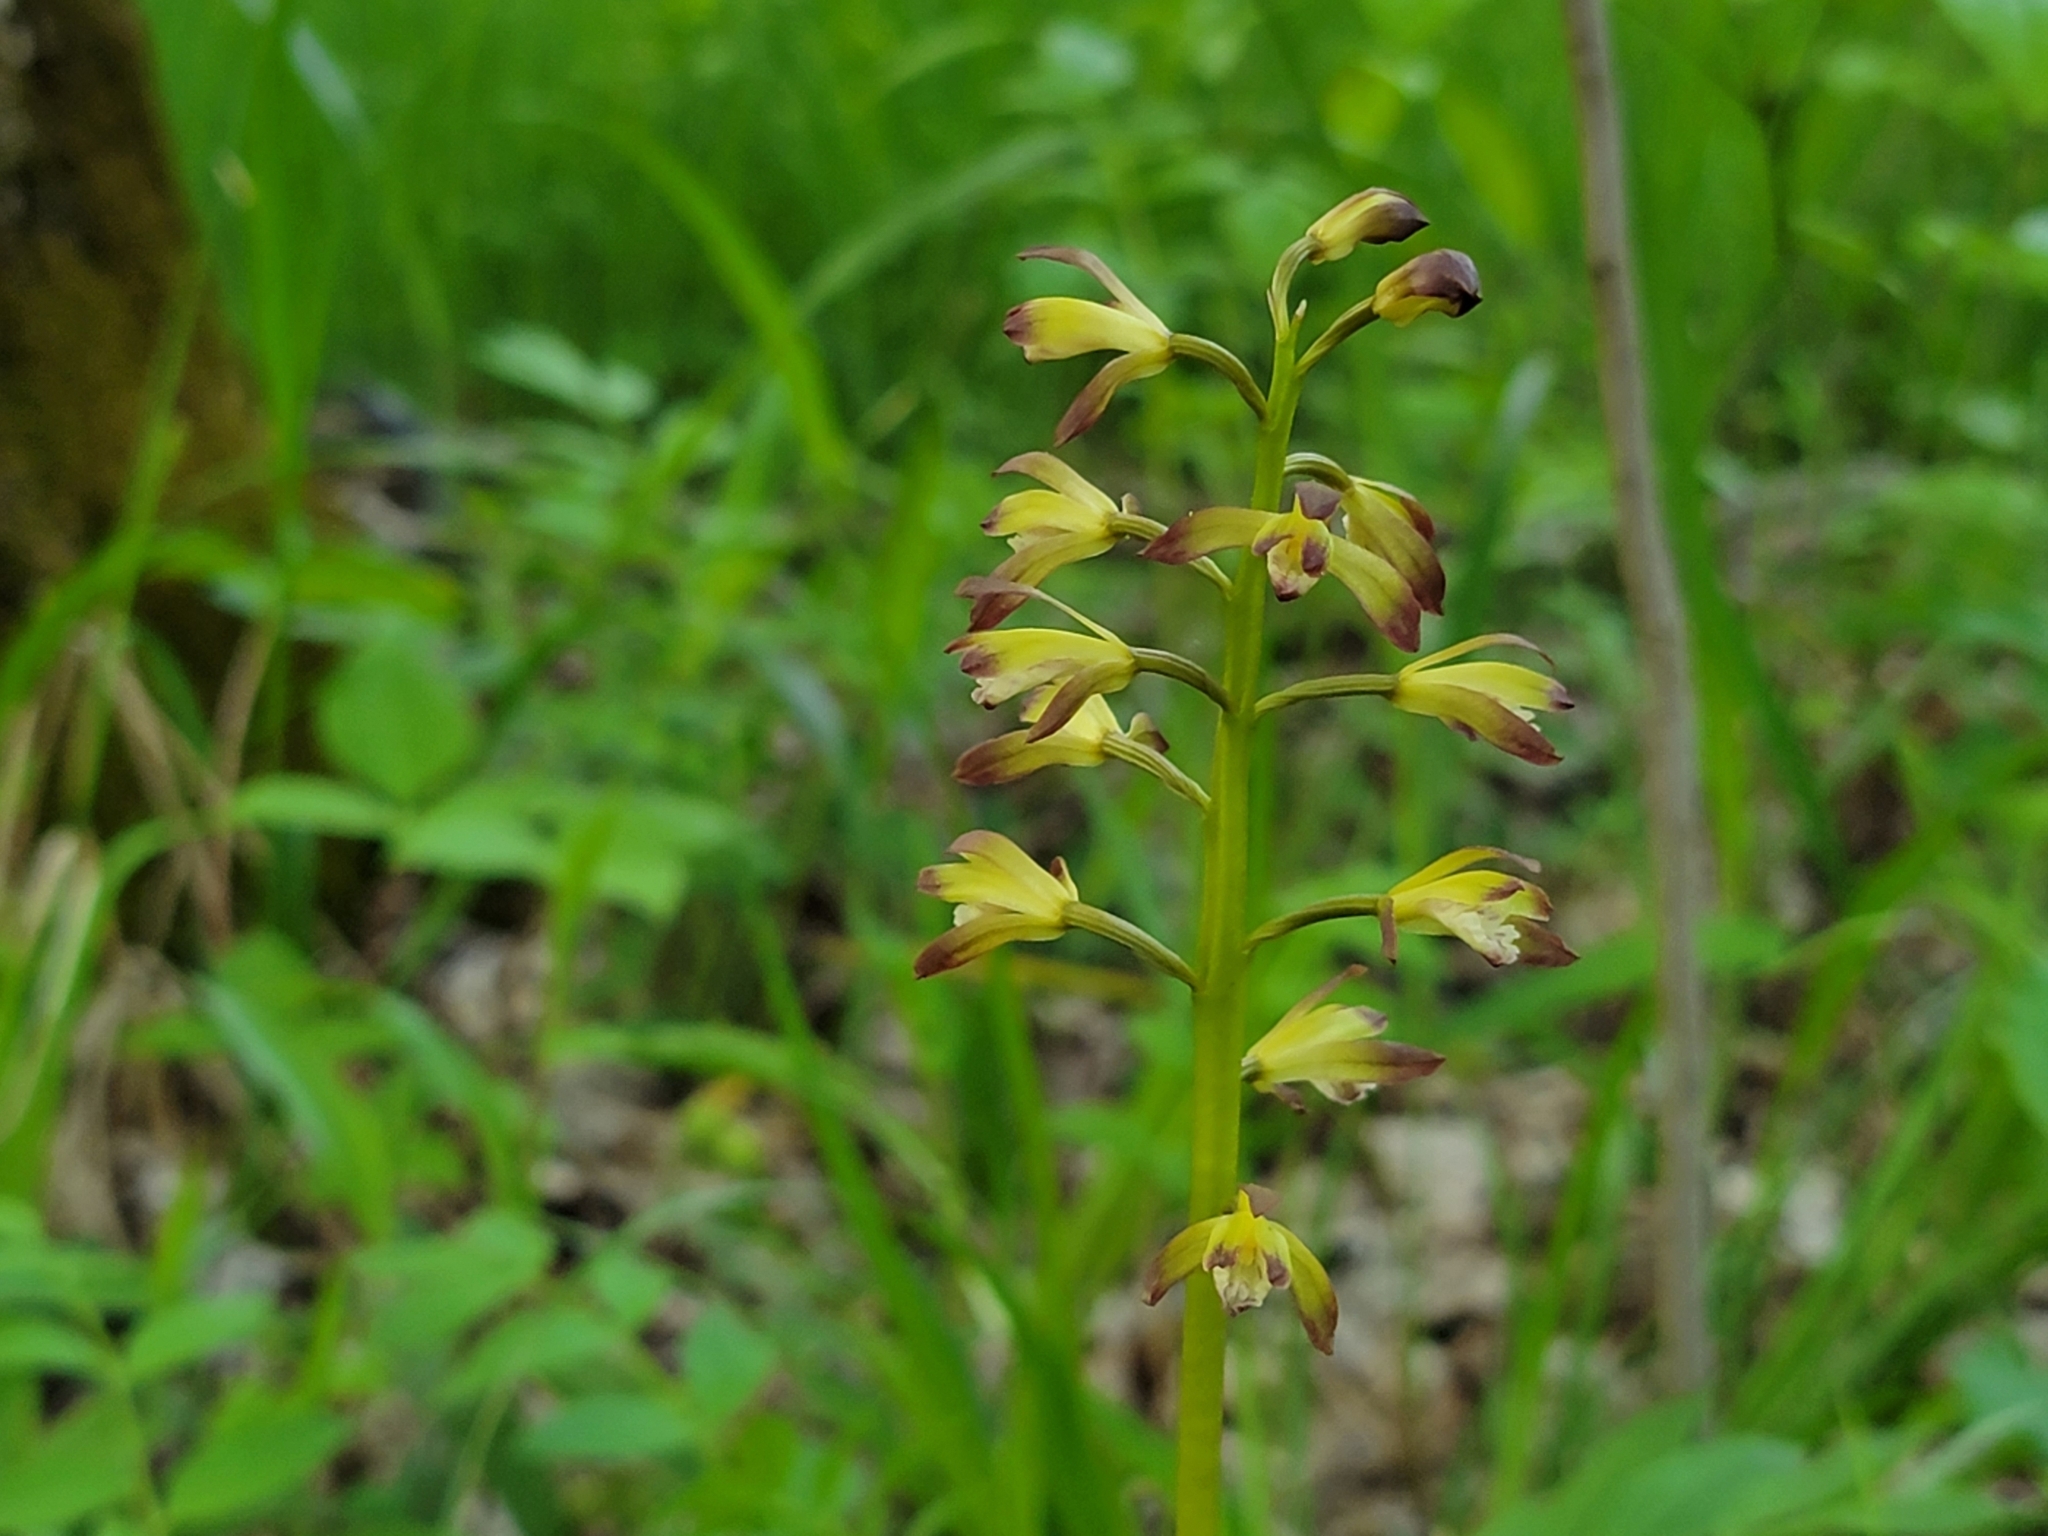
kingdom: Plantae
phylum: Tracheophyta
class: Liliopsida
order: Asparagales
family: Orchidaceae
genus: Aplectrum
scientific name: Aplectrum hyemale
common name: Adam-and-eve
